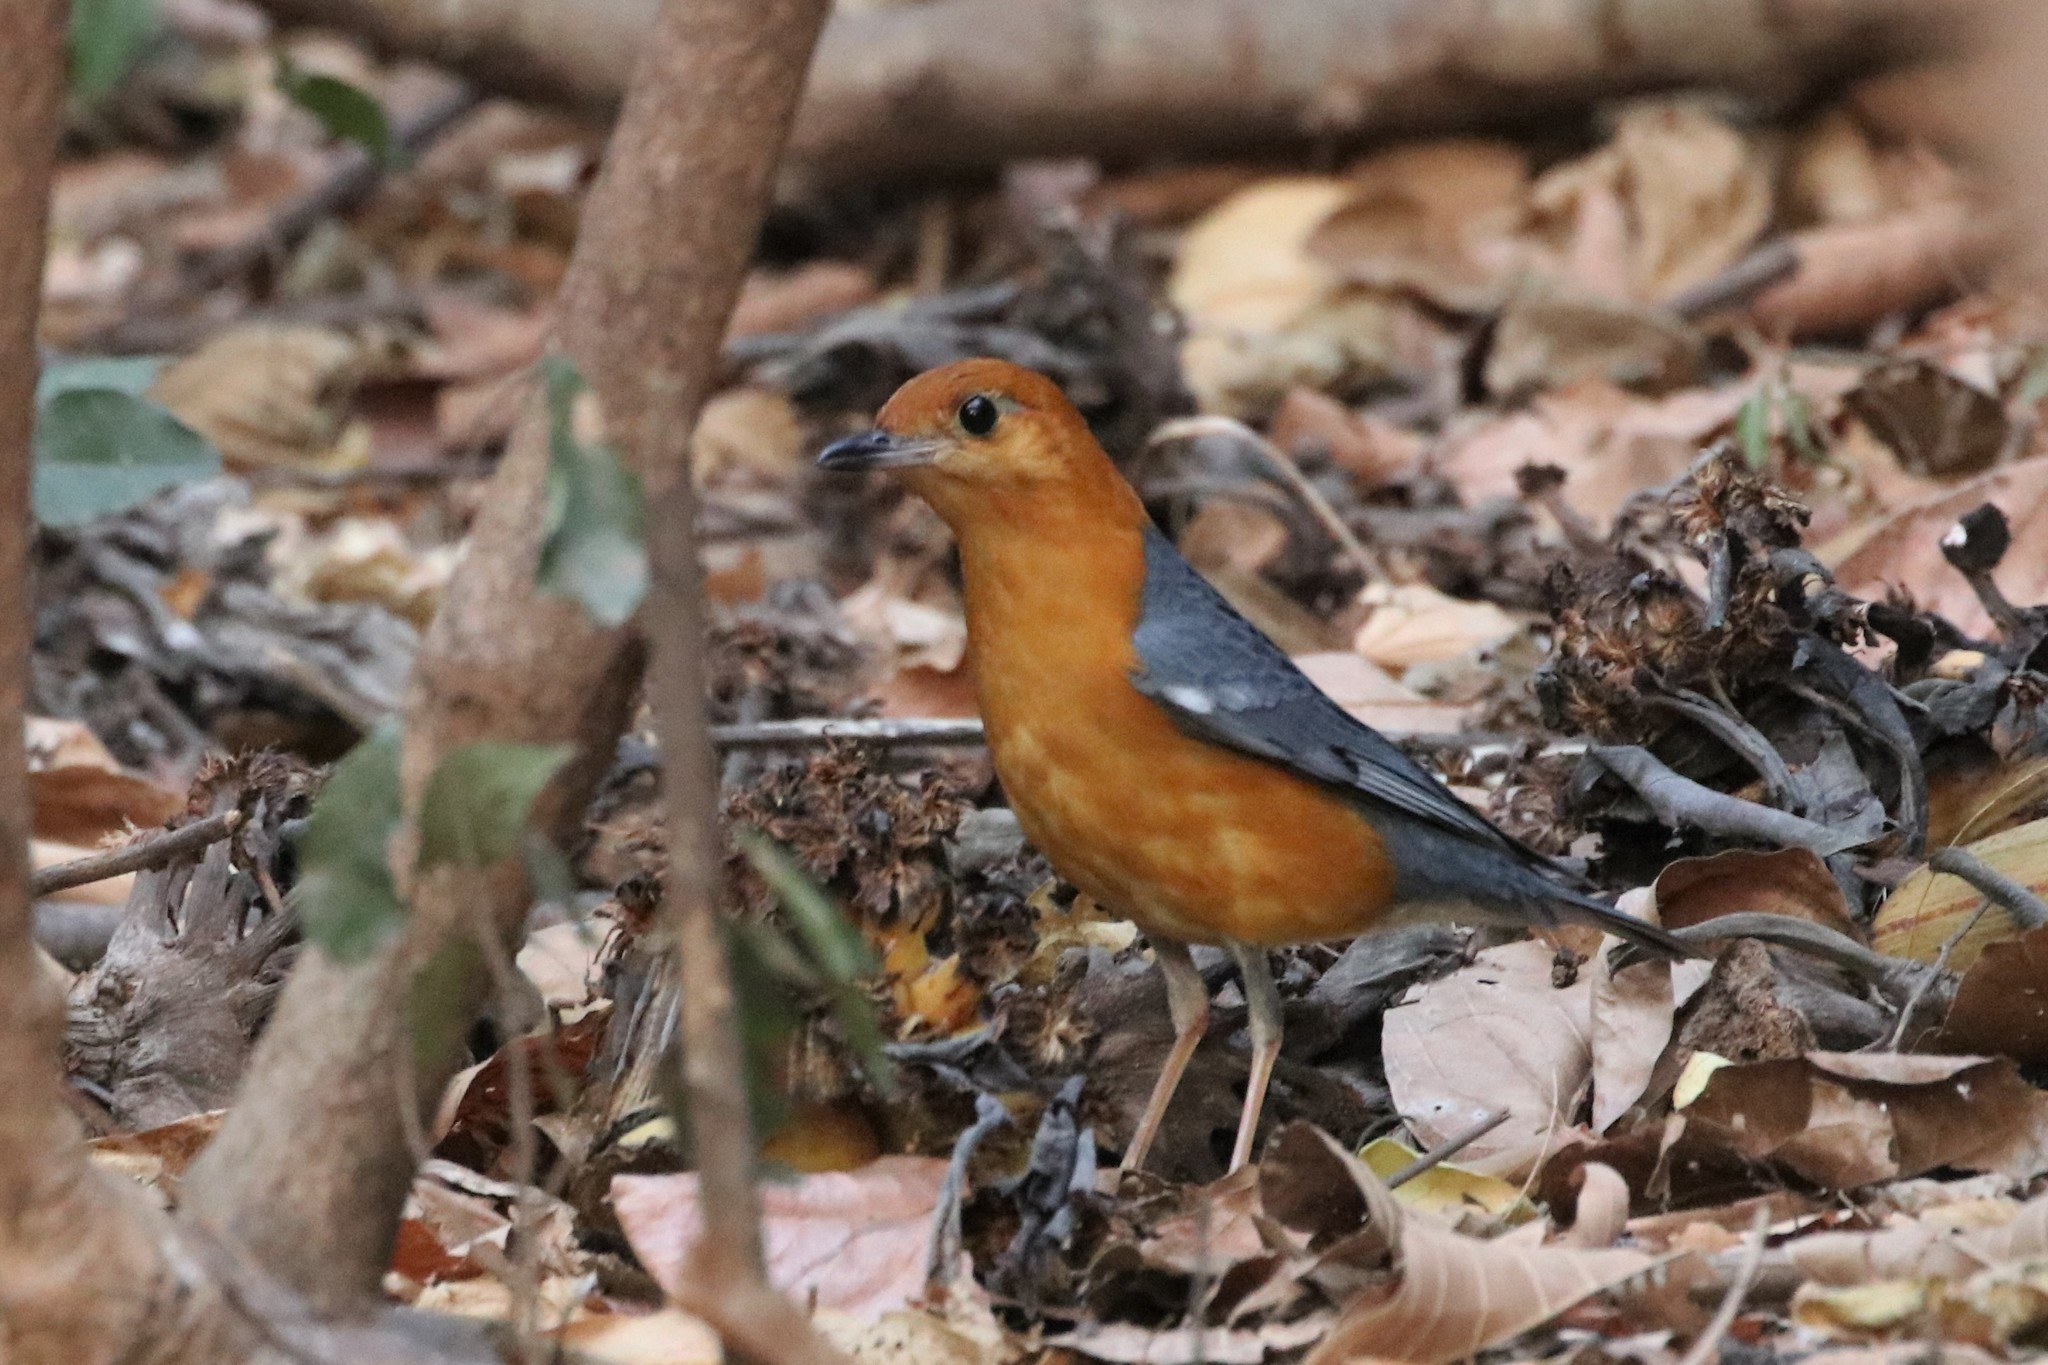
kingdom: Animalia
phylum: Chordata
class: Aves
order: Passeriformes
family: Turdidae
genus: Geokichla
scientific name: Geokichla citrina
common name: Orange-headed thrush
